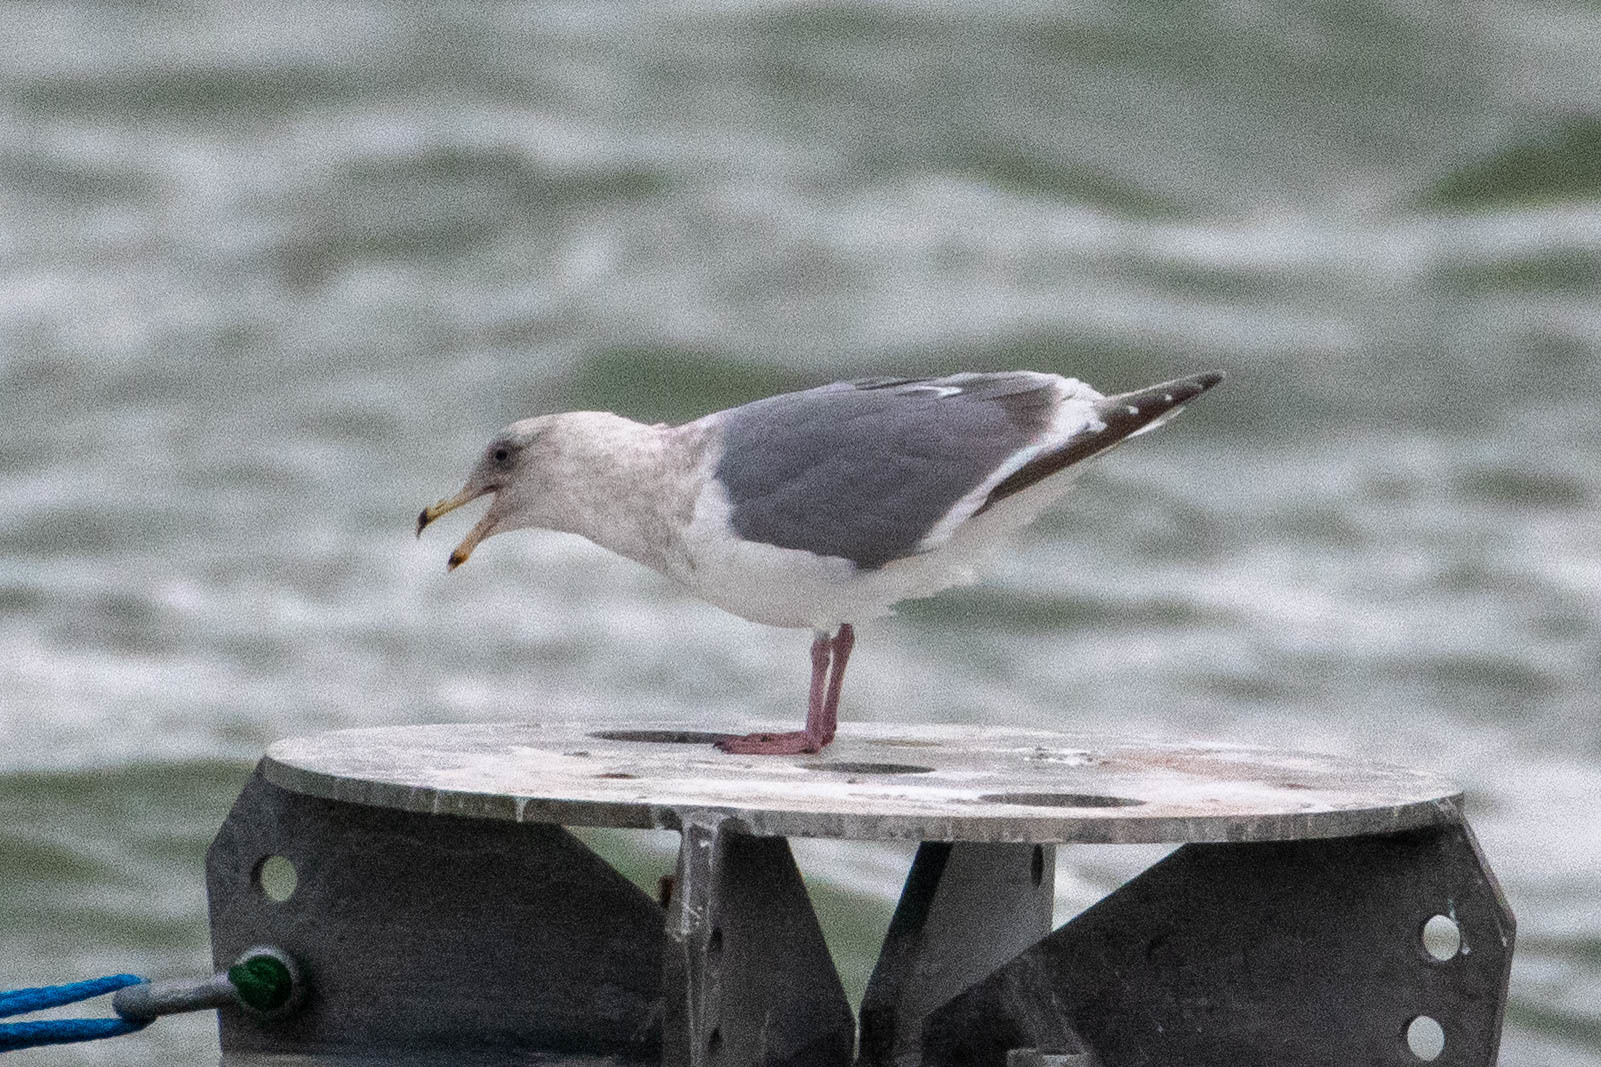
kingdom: Animalia
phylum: Chordata
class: Aves
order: Charadriiformes
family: Laridae
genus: Larus
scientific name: Larus
